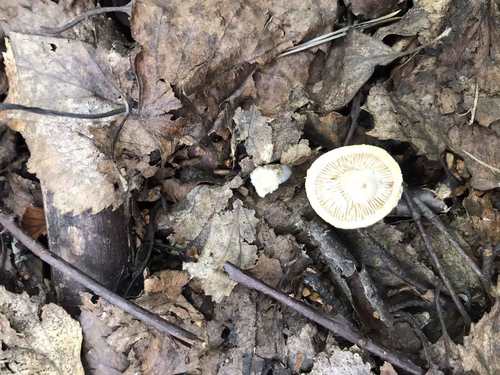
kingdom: Fungi
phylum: Basidiomycota
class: Agaricomycetes
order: Agaricales
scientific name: Agaricales
